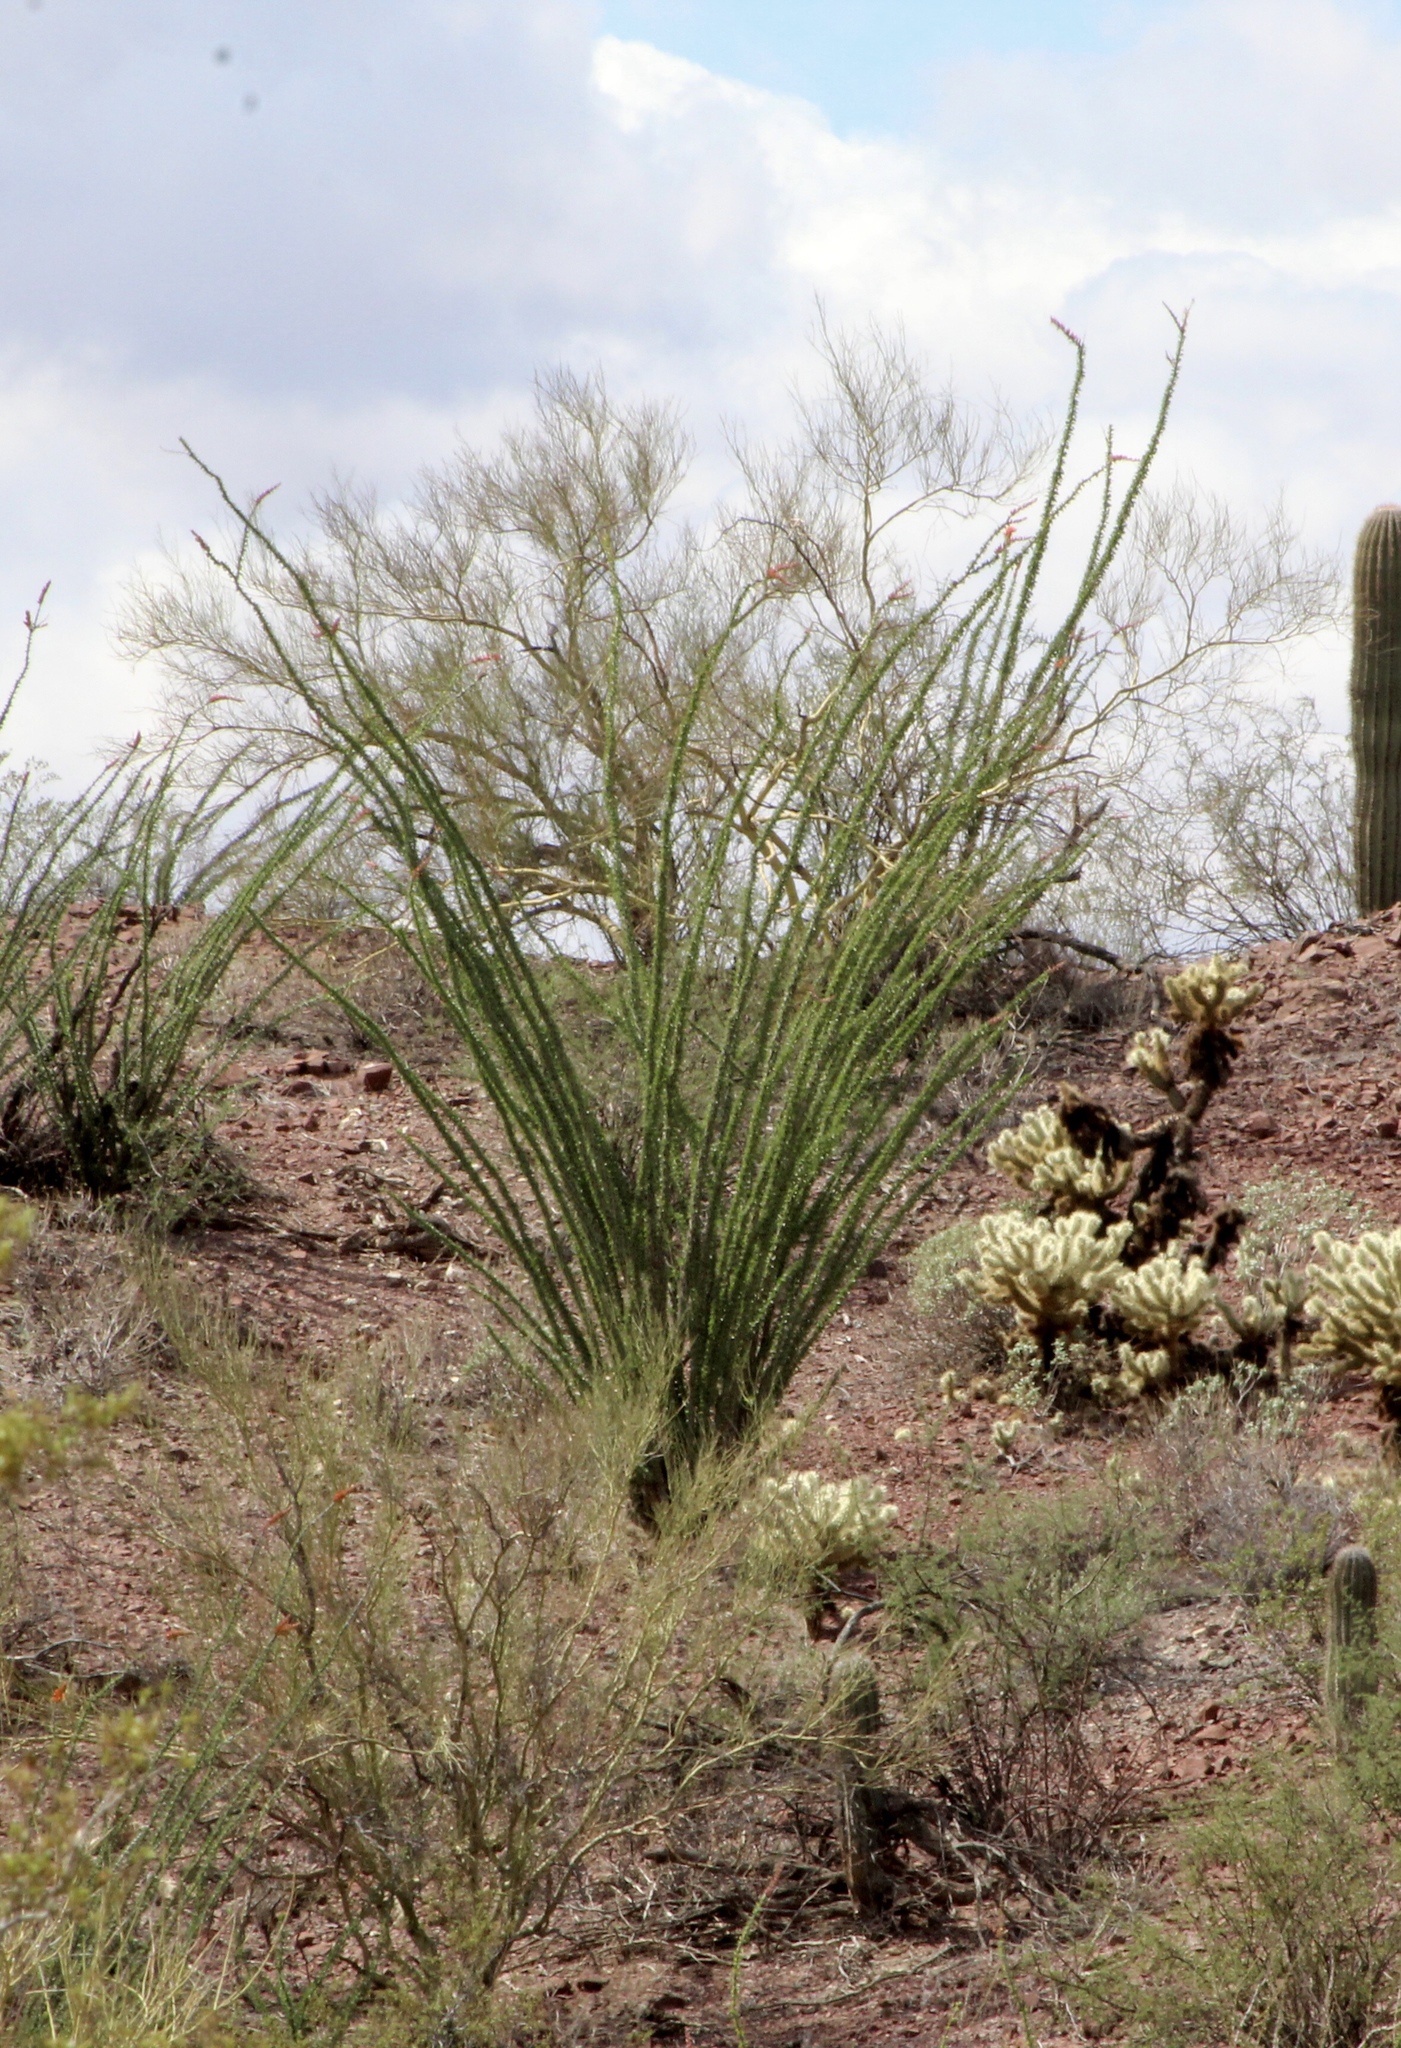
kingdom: Plantae
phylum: Tracheophyta
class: Magnoliopsida
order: Ericales
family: Fouquieriaceae
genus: Fouquieria
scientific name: Fouquieria splendens
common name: Vine-cactus
